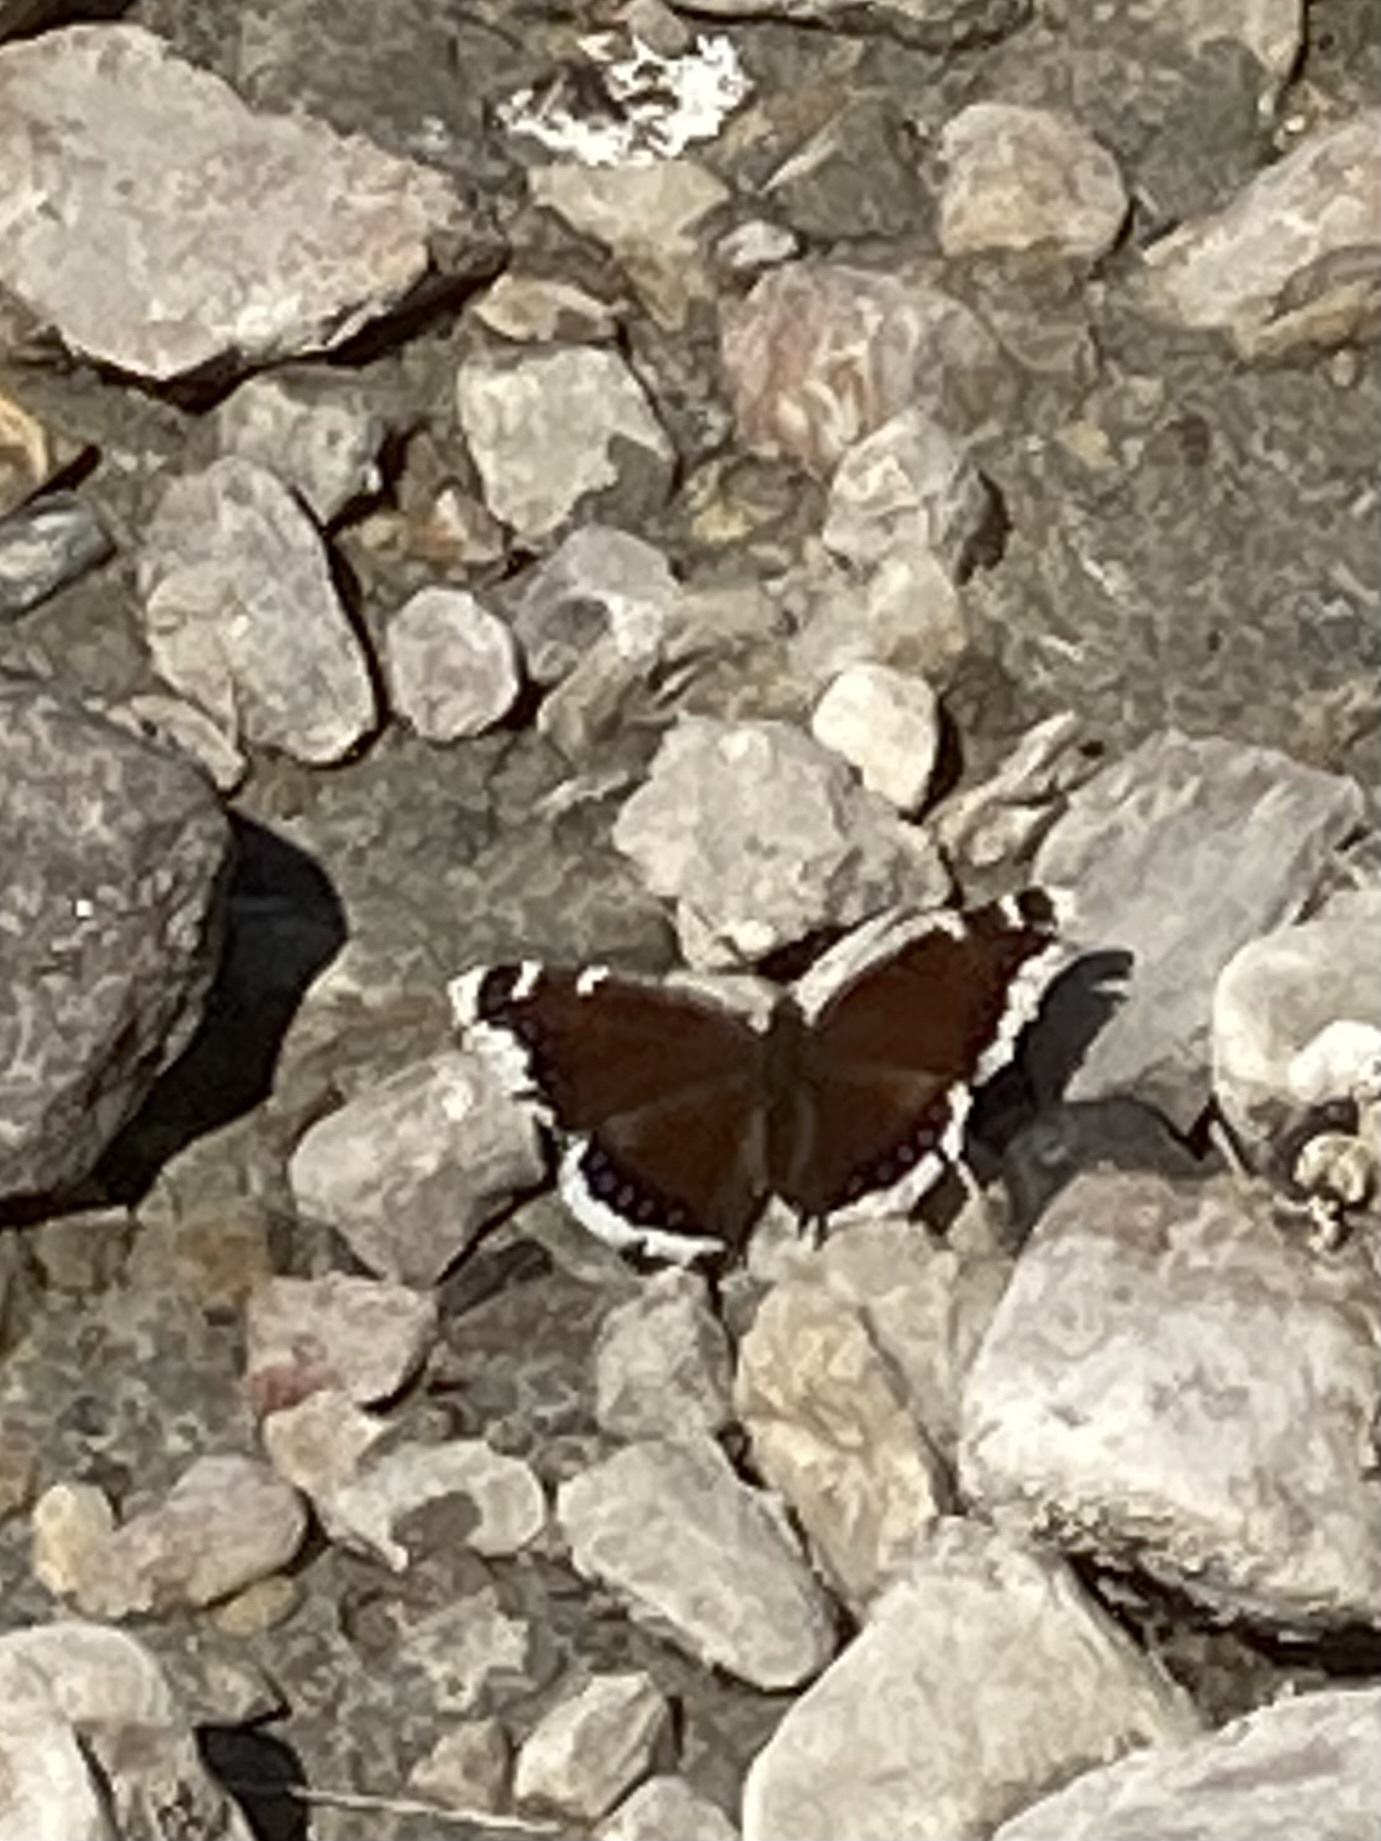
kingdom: Animalia
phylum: Arthropoda
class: Insecta
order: Lepidoptera
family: Nymphalidae
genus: Nymphalis
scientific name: Nymphalis antiopa
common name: Camberwell beauty
